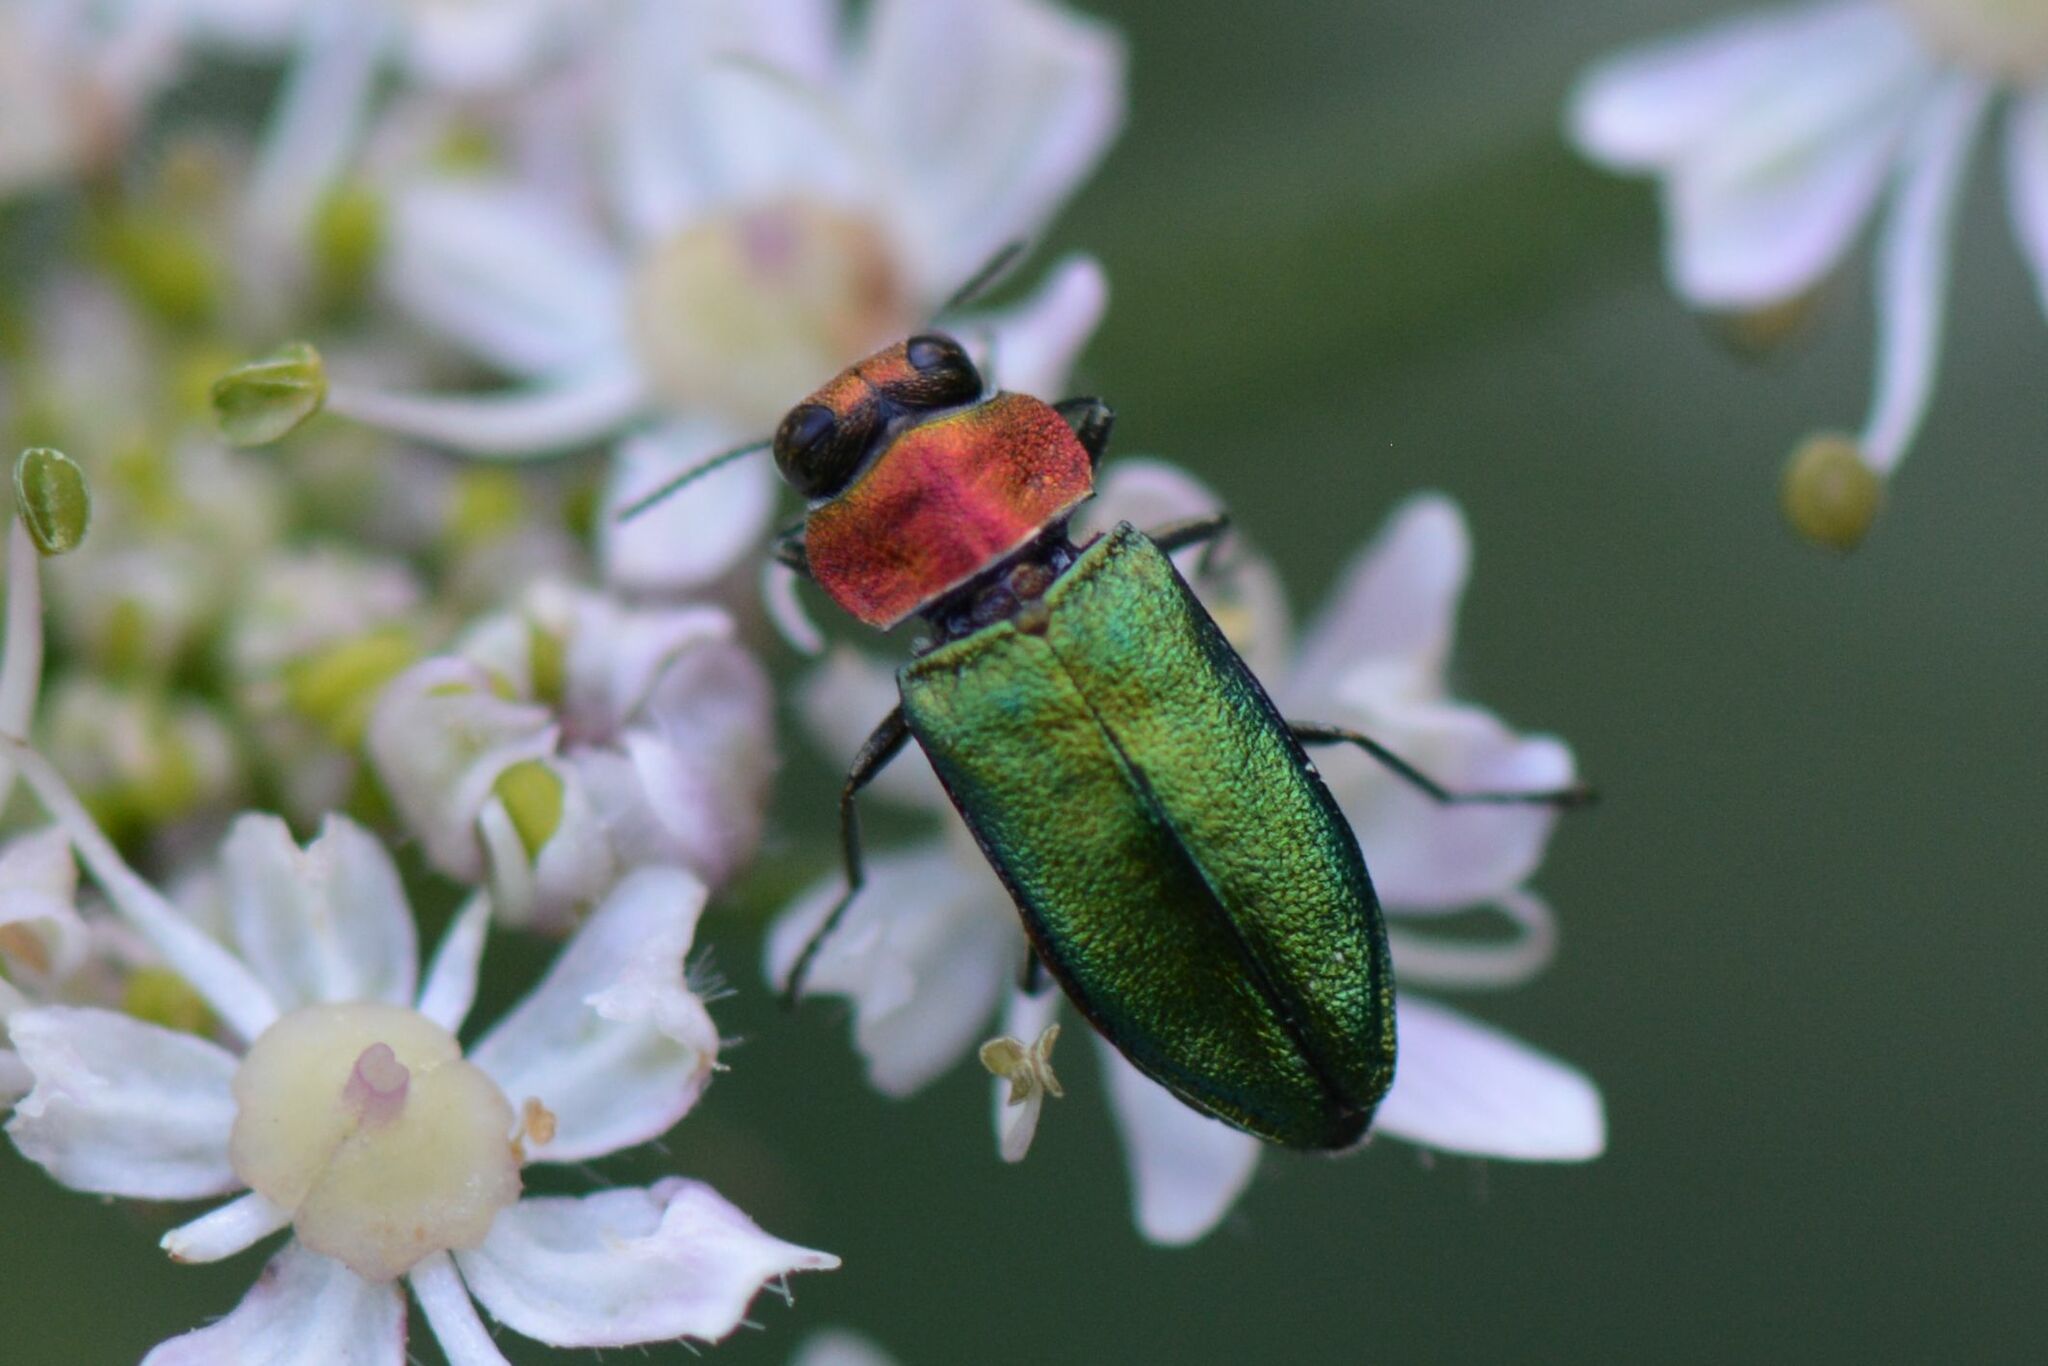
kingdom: Animalia
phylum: Arthropoda
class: Insecta
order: Coleoptera
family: Buprestidae
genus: Anthaxia
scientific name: Anthaxia nitidula
